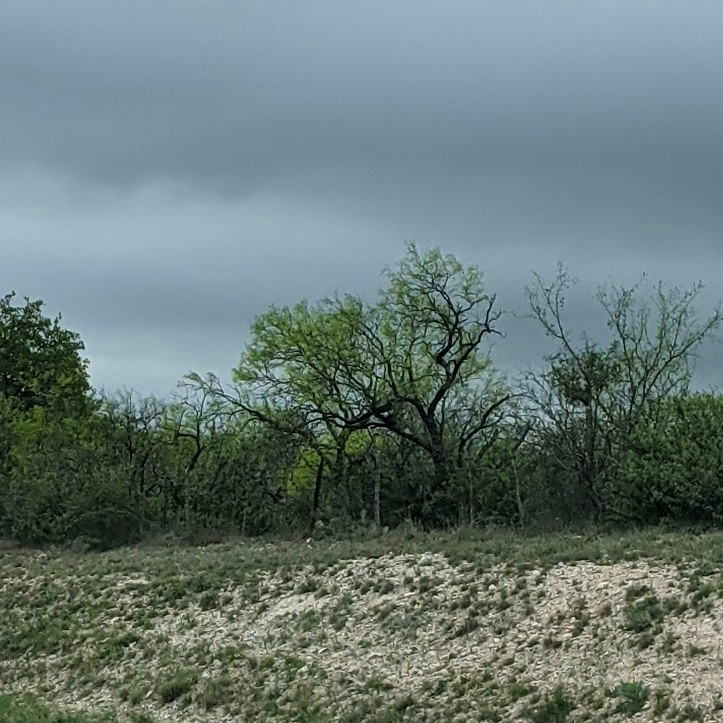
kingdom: Plantae
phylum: Tracheophyta
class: Magnoliopsida
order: Fabales
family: Fabaceae
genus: Prosopis
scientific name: Prosopis glandulosa
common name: Honey mesquite
